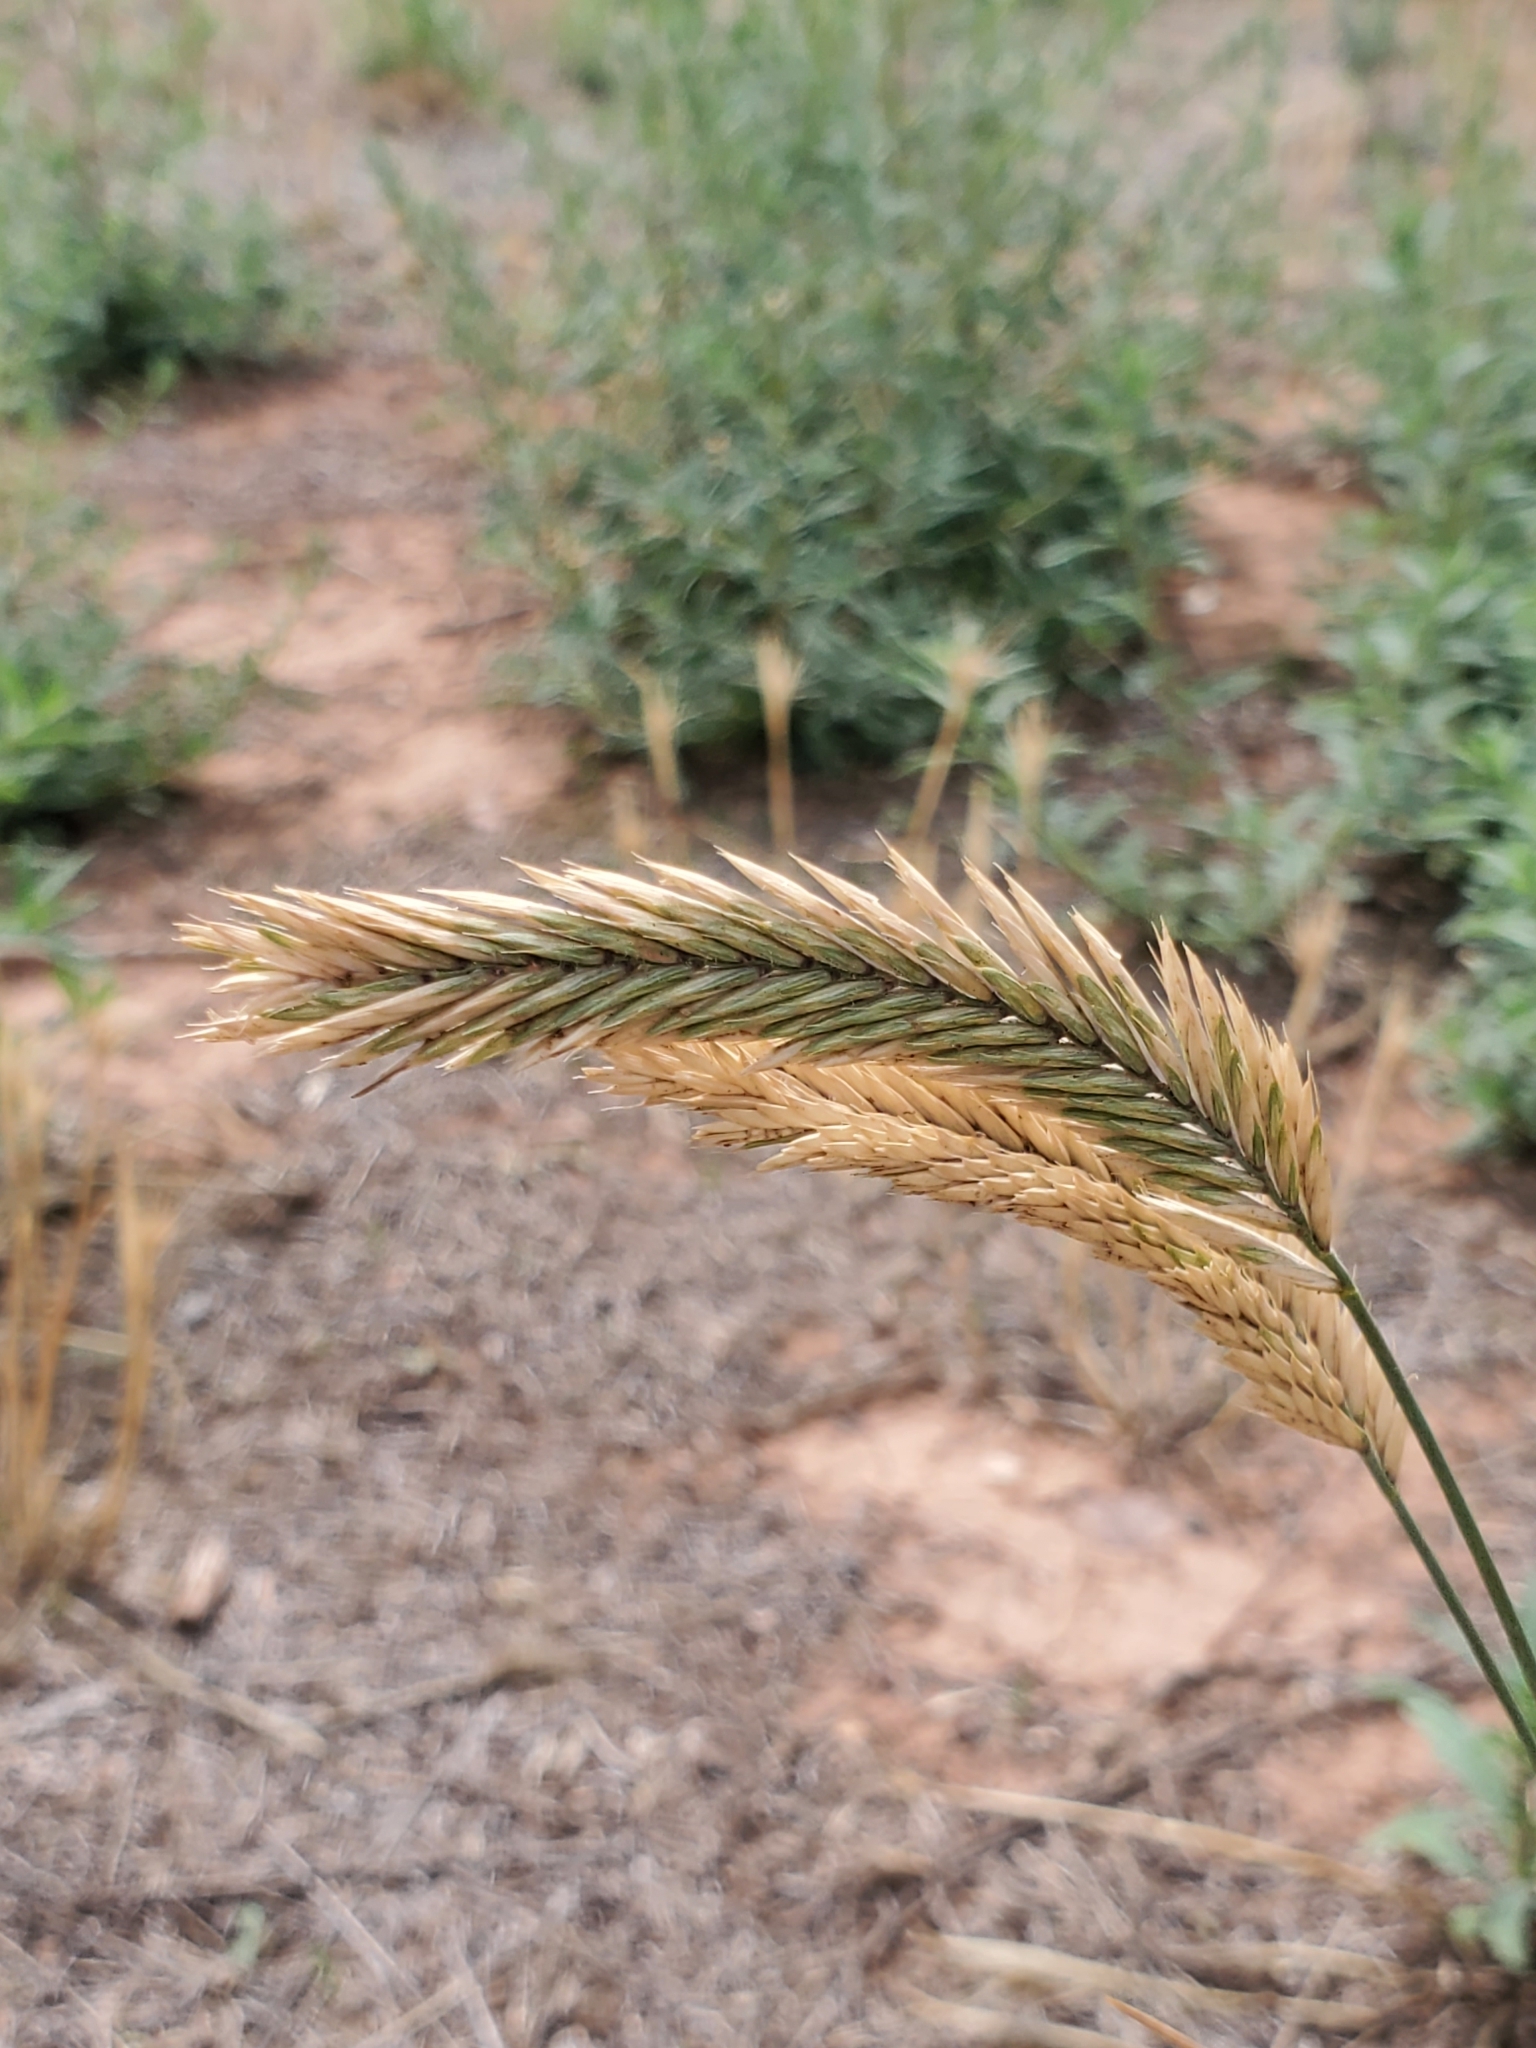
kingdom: Plantae
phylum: Tracheophyta
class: Liliopsida
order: Poales
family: Poaceae
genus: Agropyron
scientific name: Agropyron cristatum
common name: Crested wheatgrass
